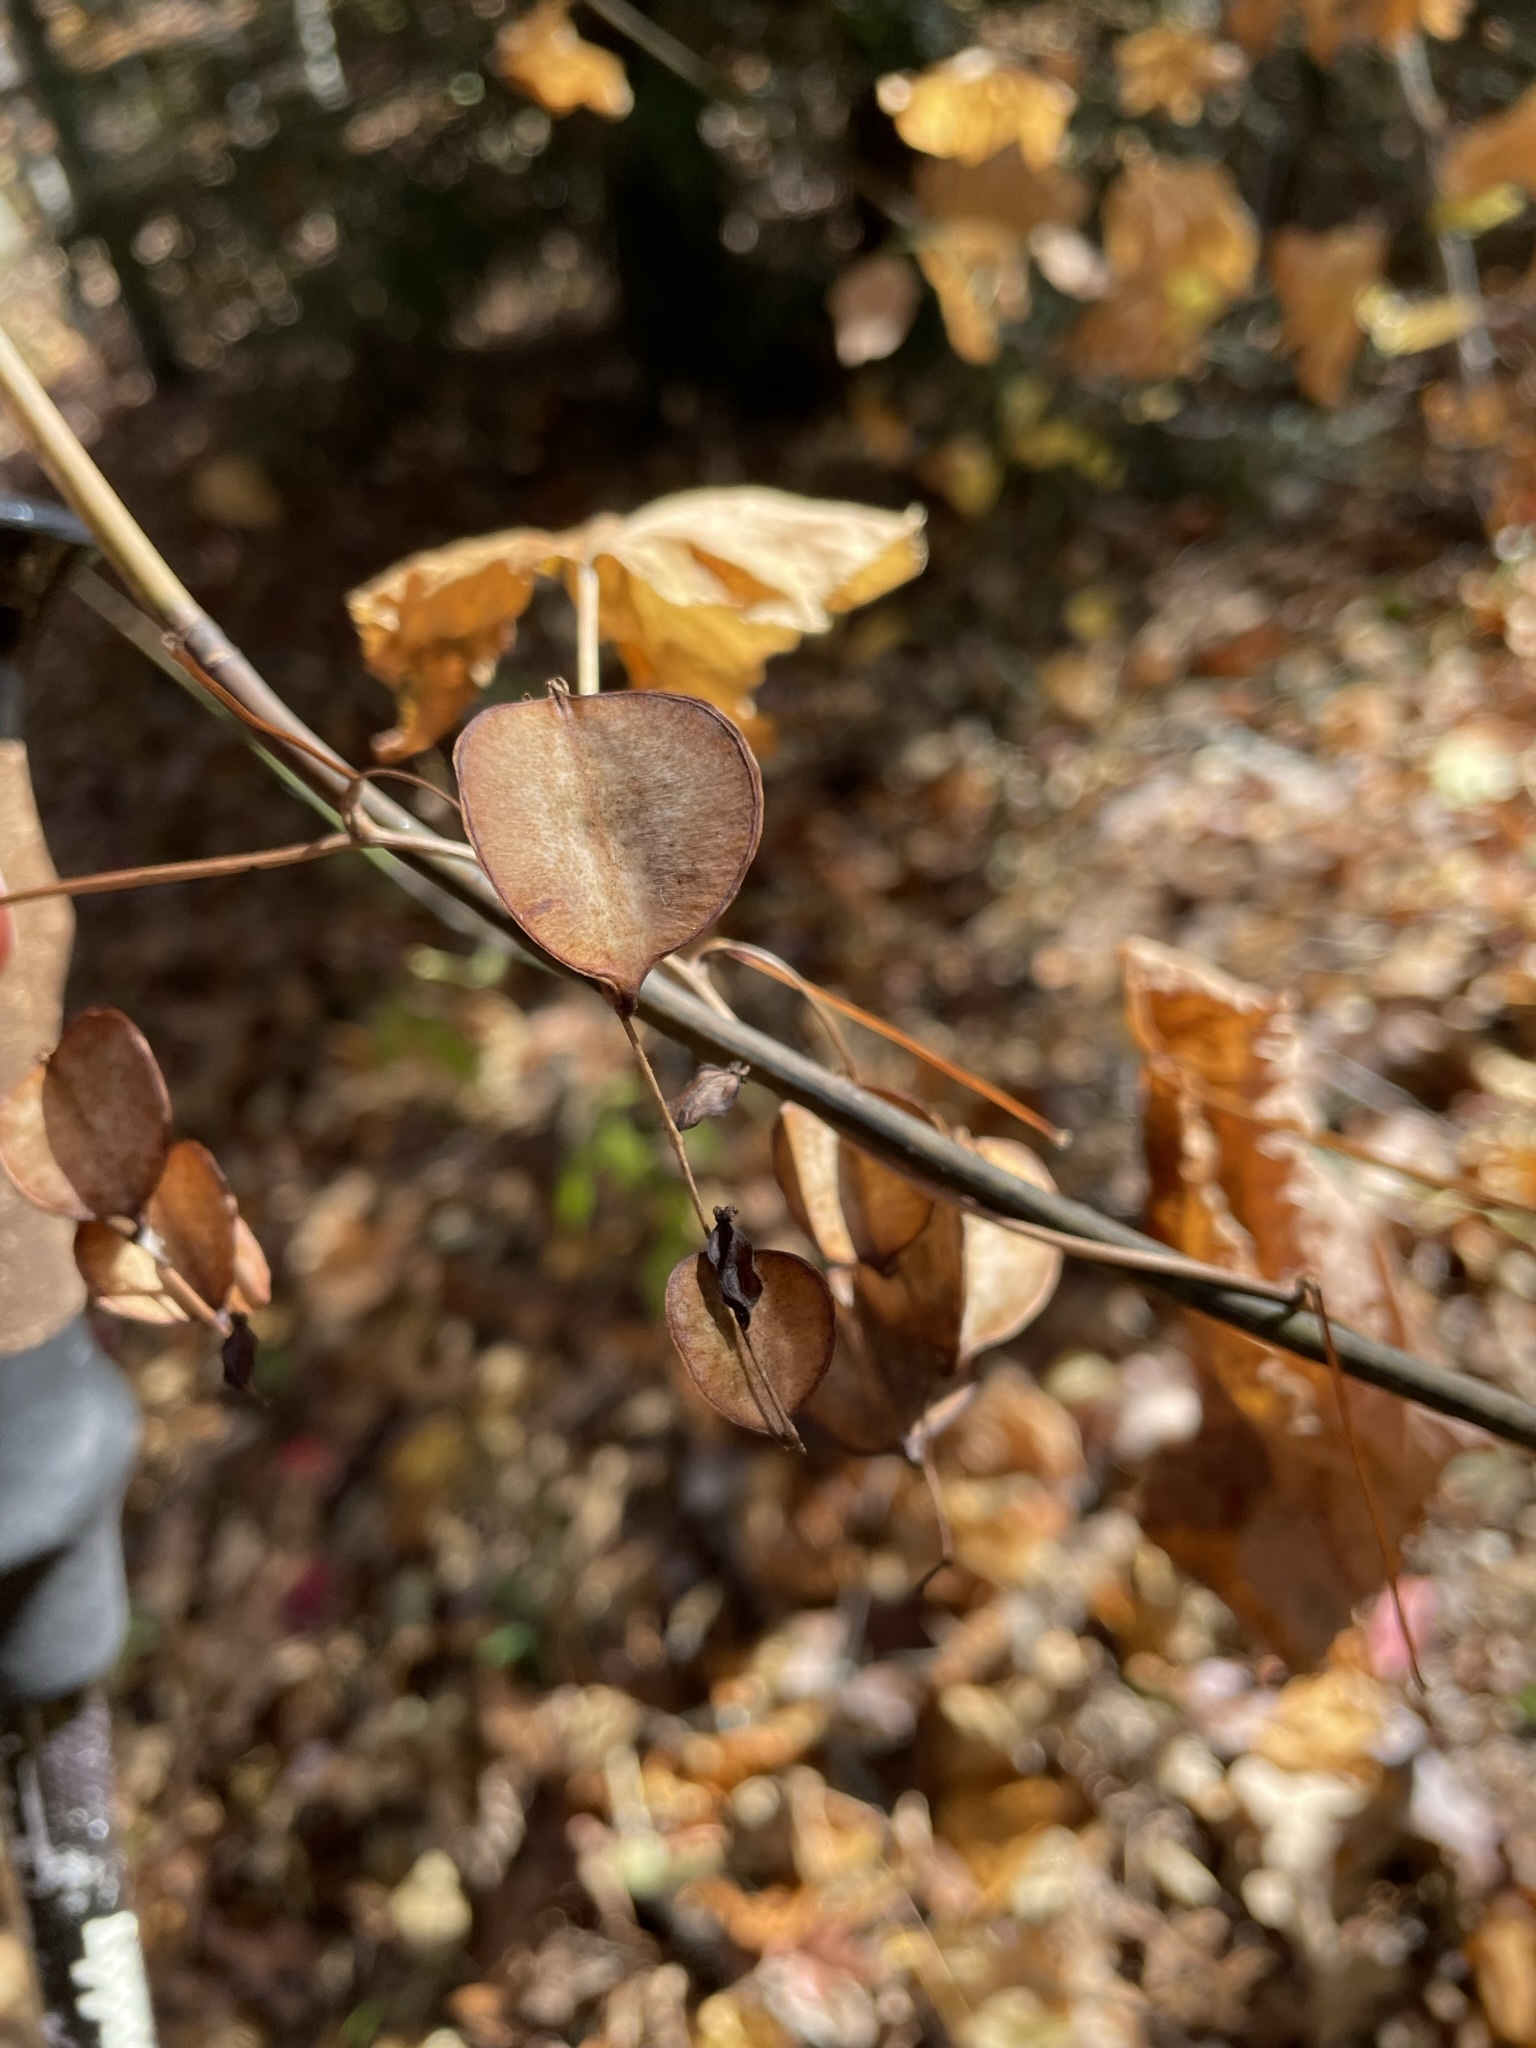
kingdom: Plantae
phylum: Tracheophyta
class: Liliopsida
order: Dioscoreales
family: Dioscoreaceae
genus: Dioscorea
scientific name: Dioscorea villosa
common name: Wild yam
